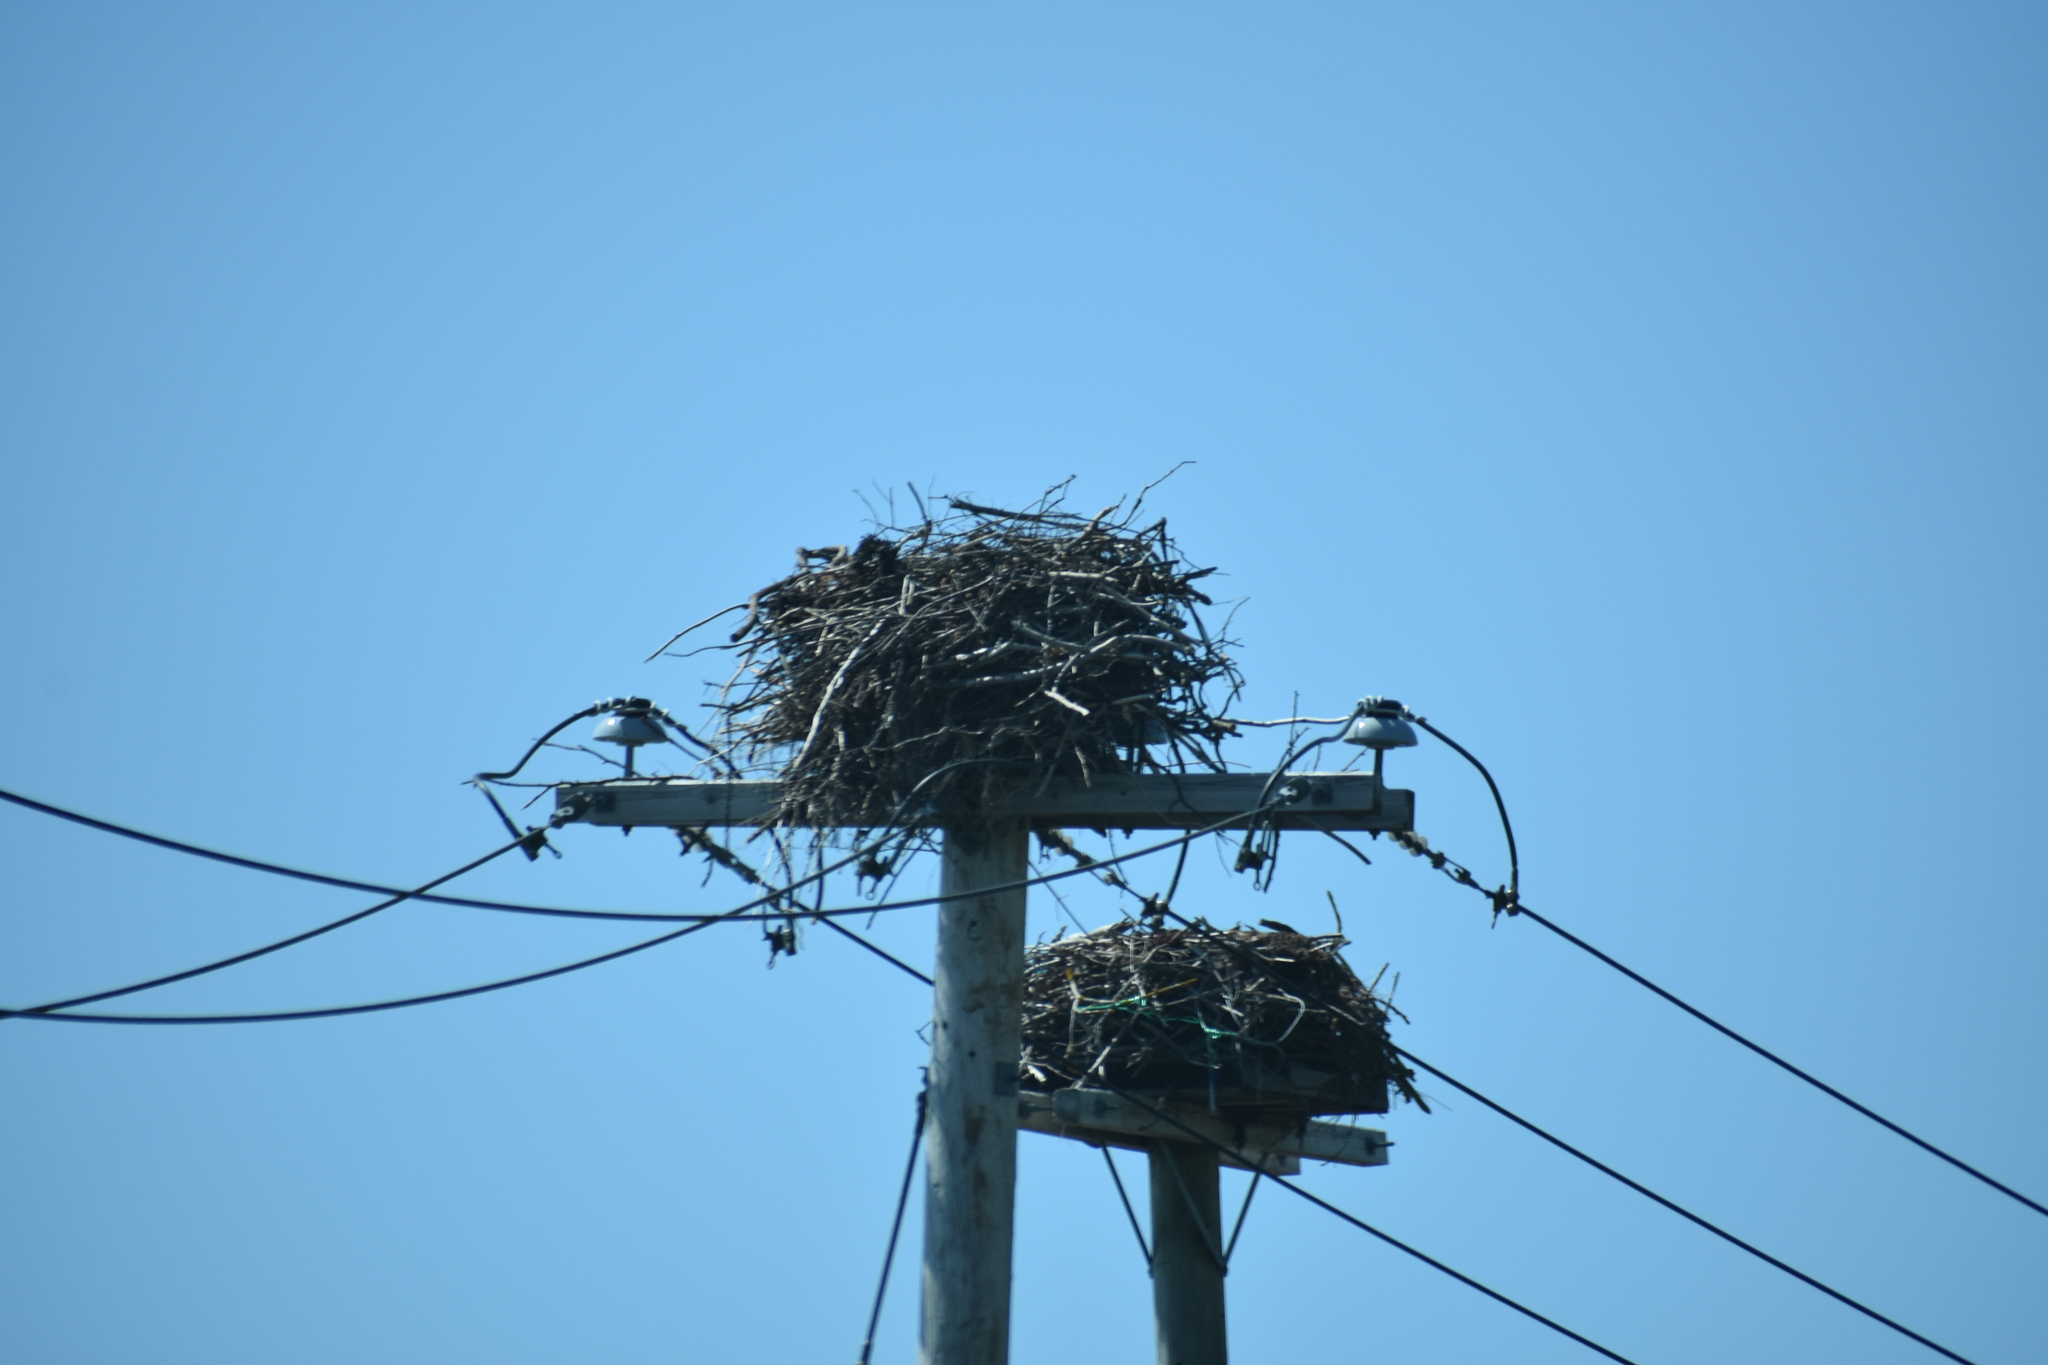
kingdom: Animalia
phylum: Chordata
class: Aves
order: Accipitriformes
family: Pandionidae
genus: Pandion
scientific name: Pandion haliaetus
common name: Osprey
